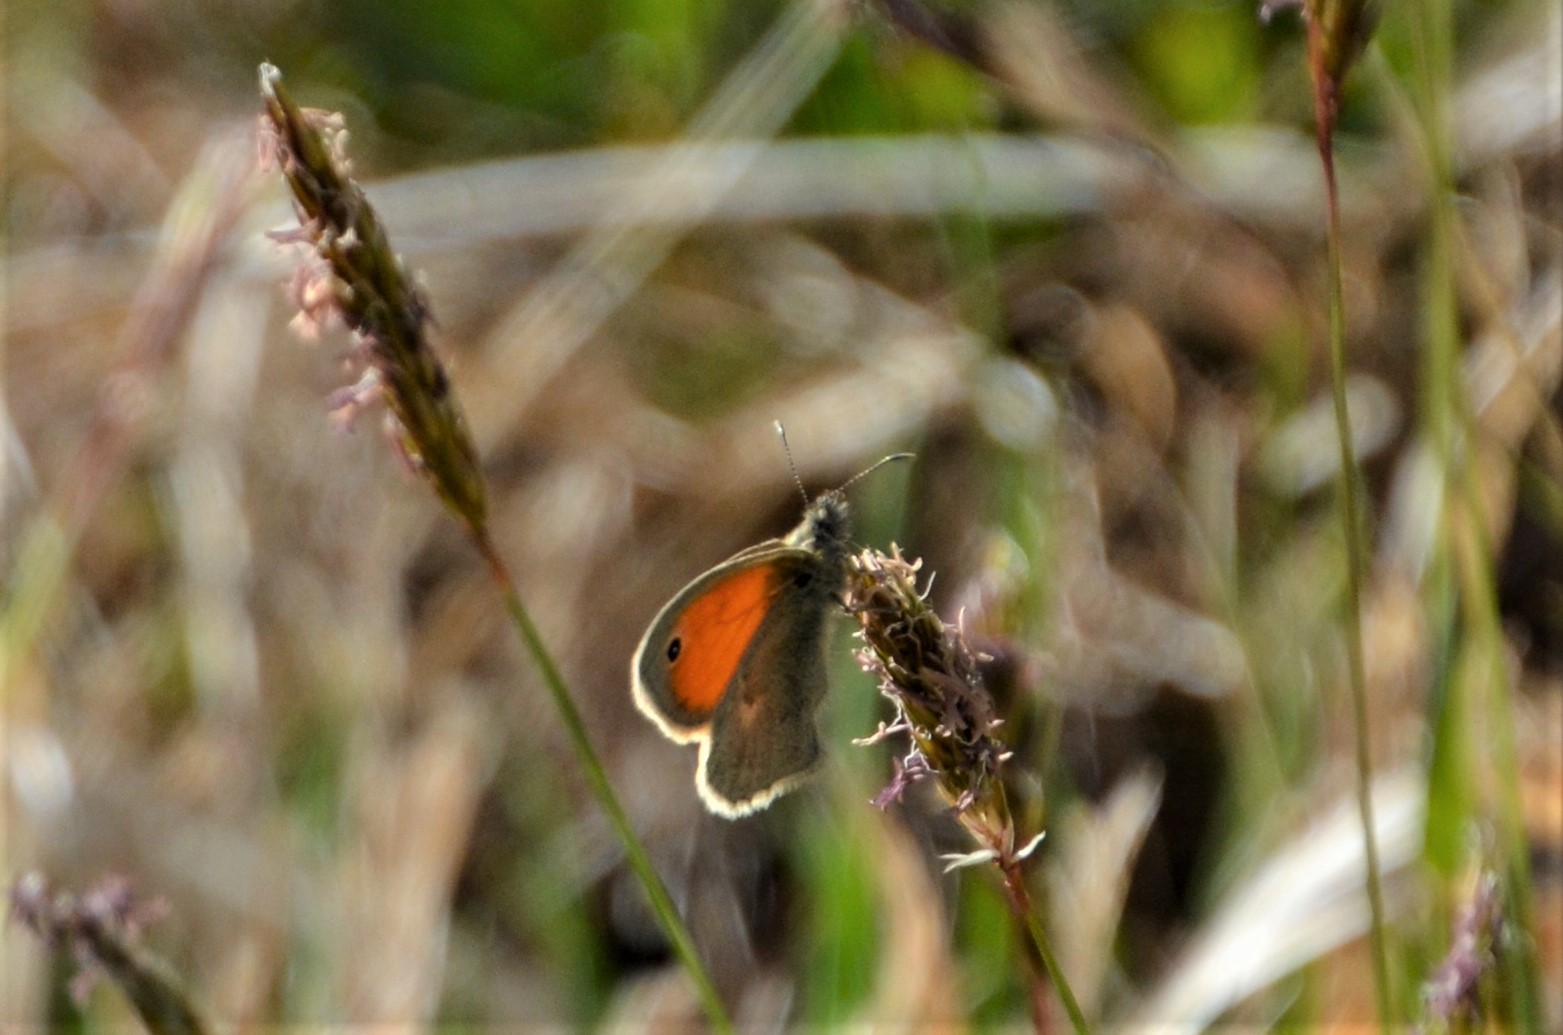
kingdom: Animalia
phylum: Arthropoda
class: Insecta
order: Lepidoptera
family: Nymphalidae
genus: Coenonympha
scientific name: Coenonympha pamphilus
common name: Small heath
